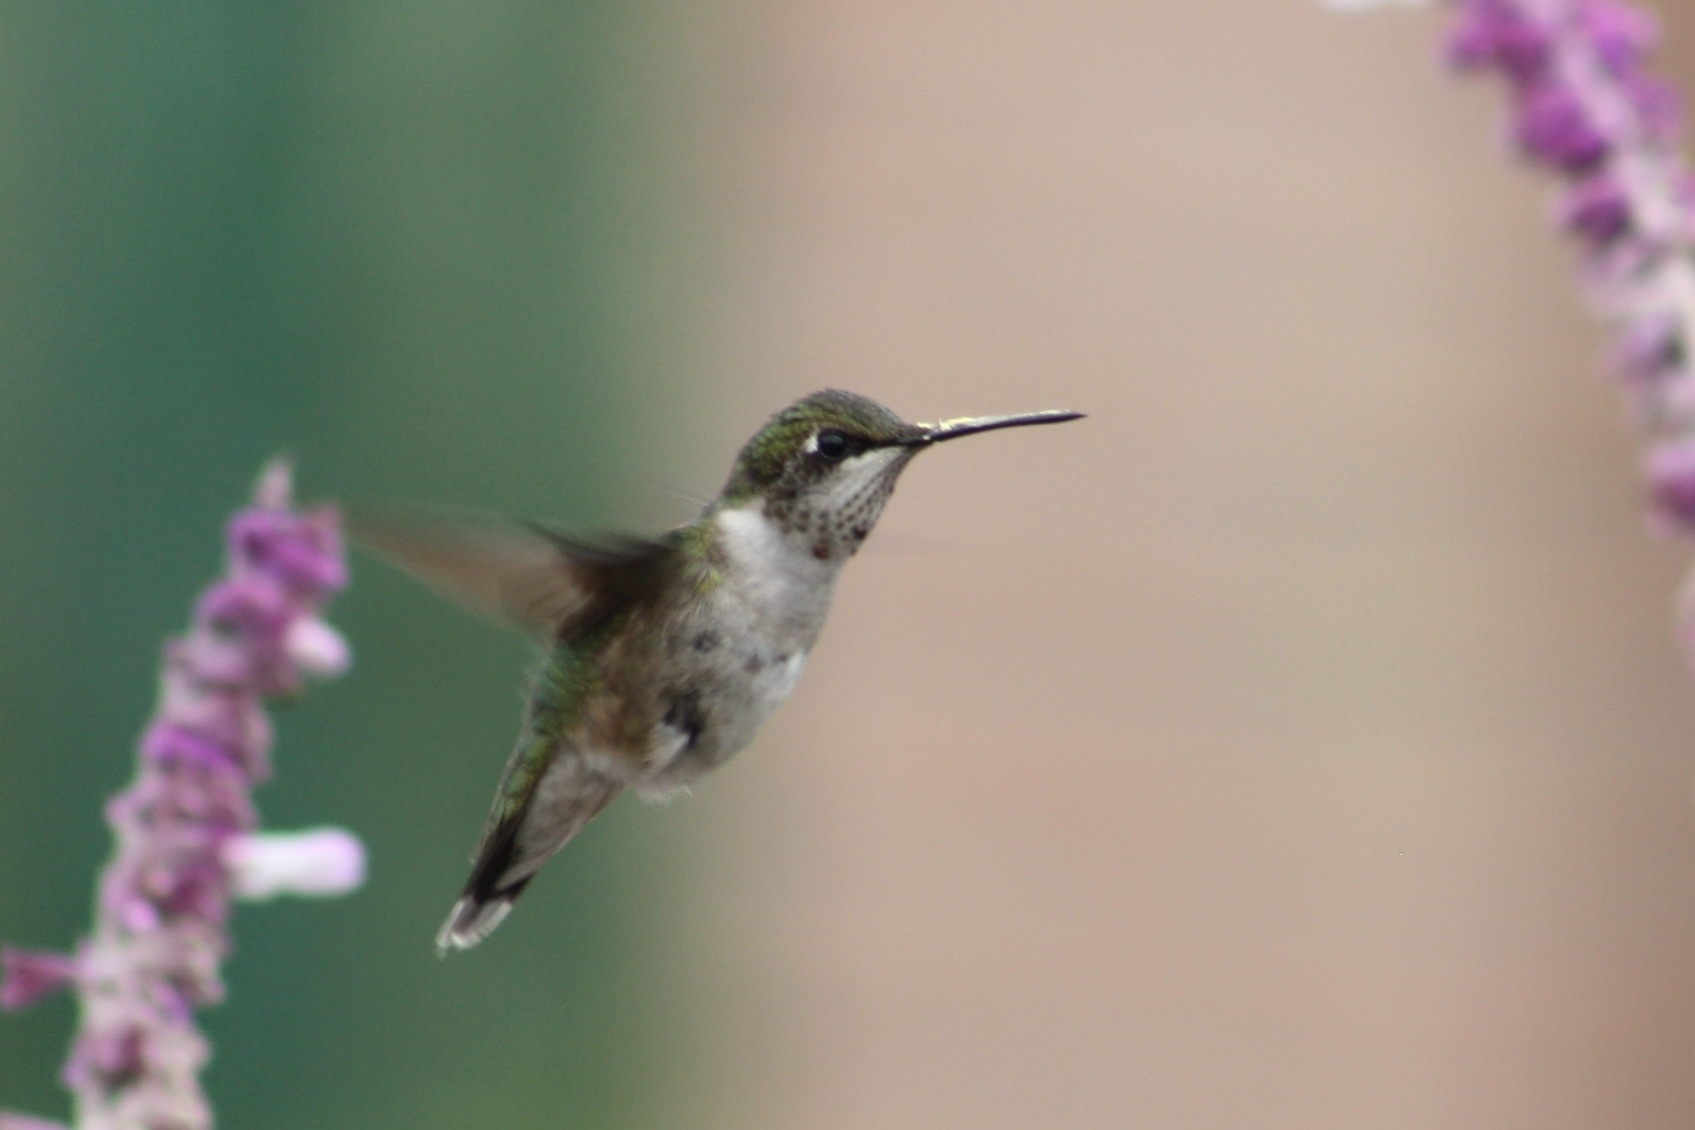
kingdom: Animalia
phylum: Chordata
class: Aves
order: Apodiformes
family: Trochilidae
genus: Archilochus
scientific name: Archilochus colubris
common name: Ruby-throated hummingbird
